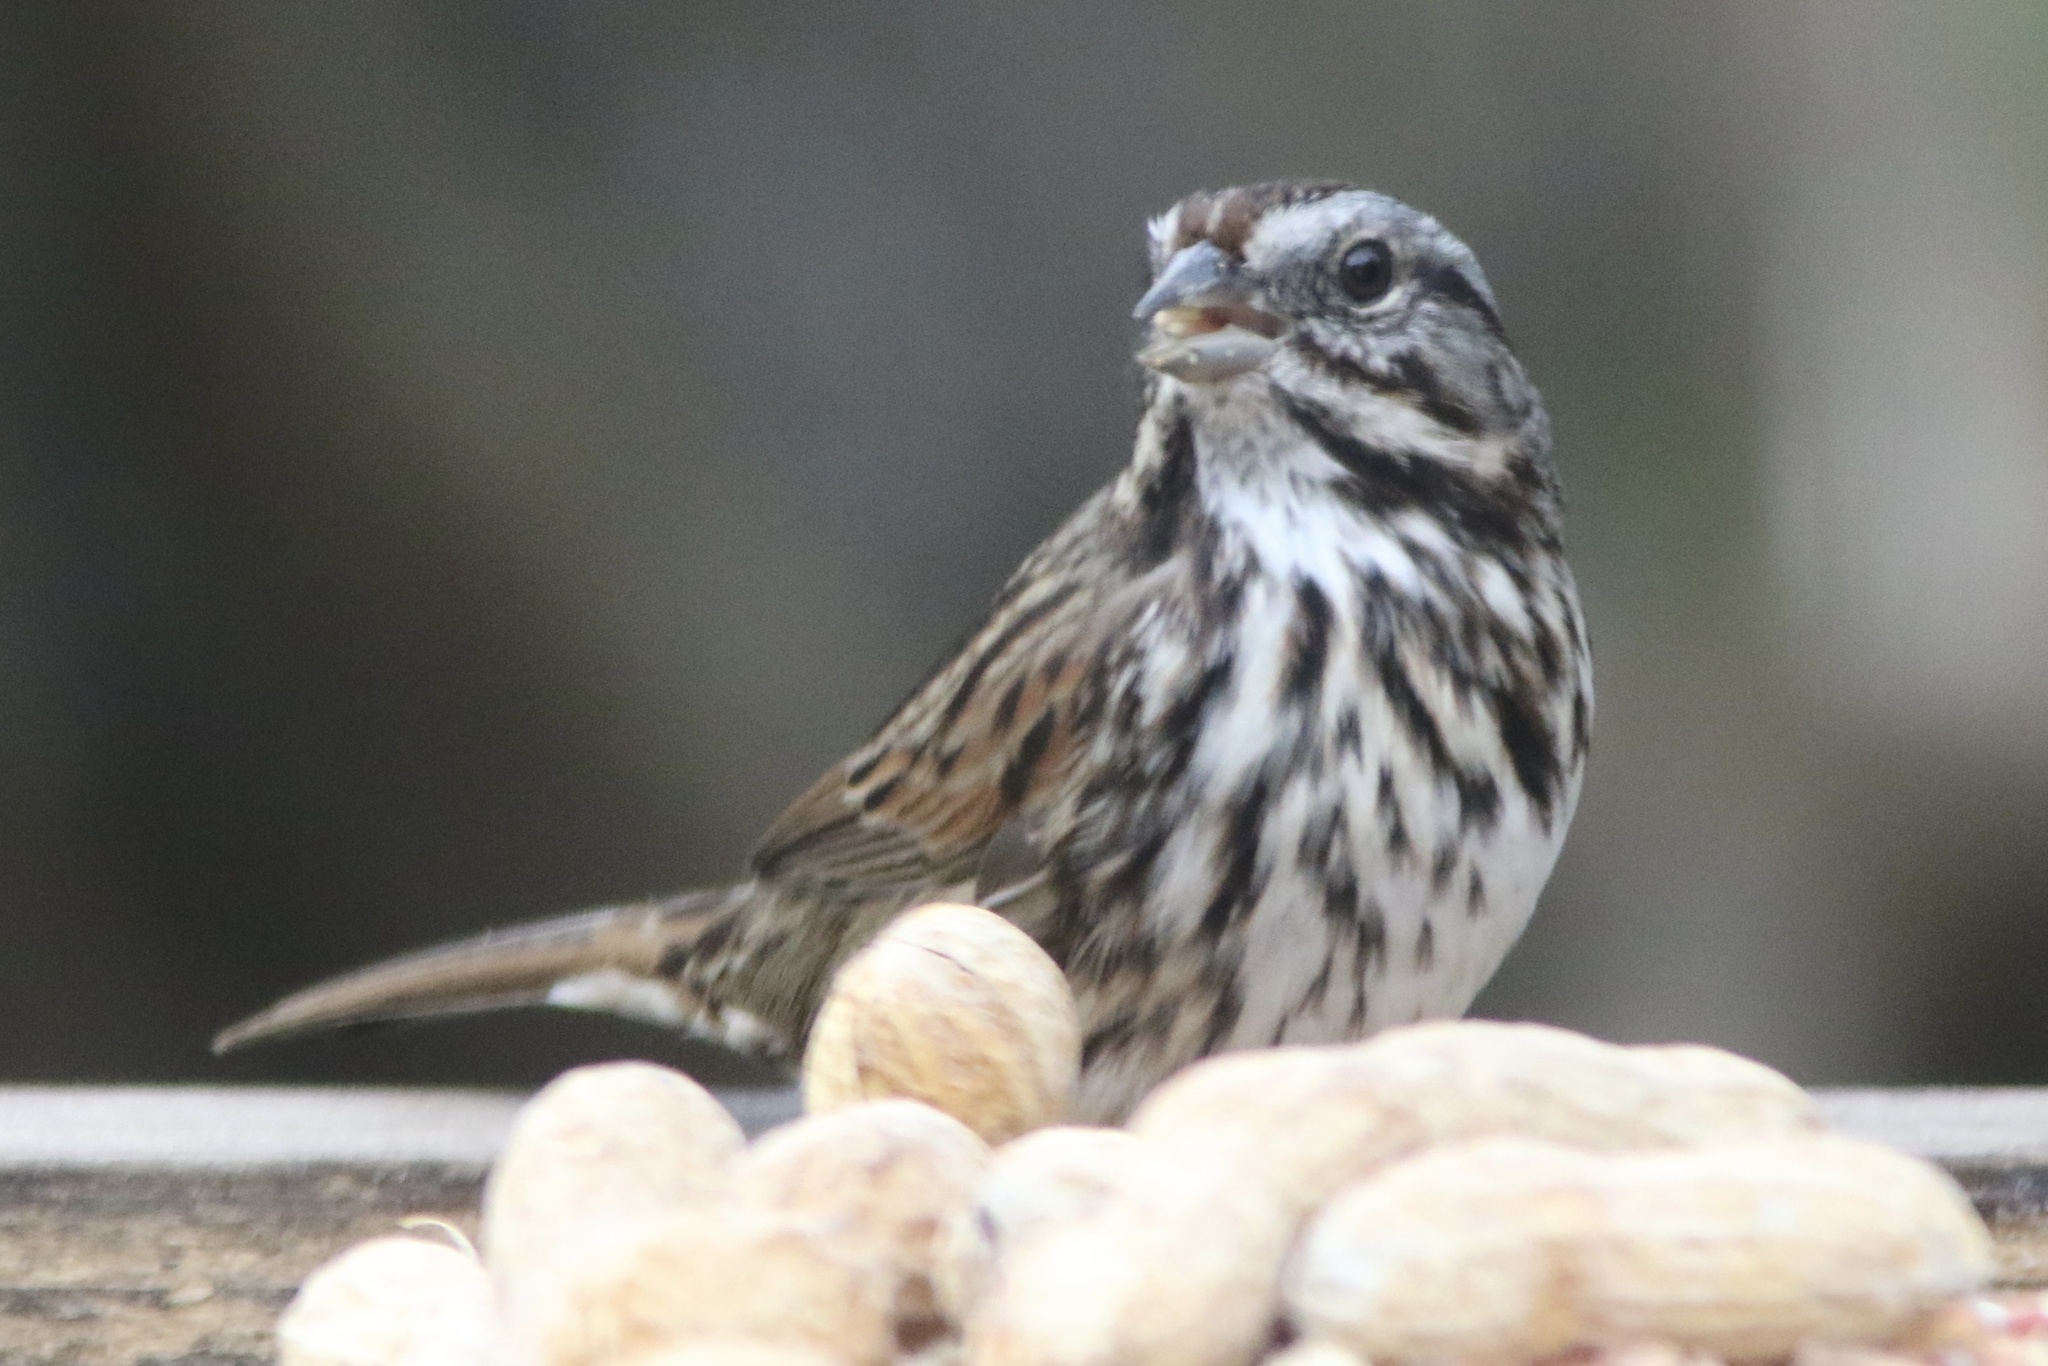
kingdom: Animalia
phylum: Chordata
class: Aves
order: Passeriformes
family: Passerellidae
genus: Melospiza
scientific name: Melospiza melodia
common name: Song sparrow
